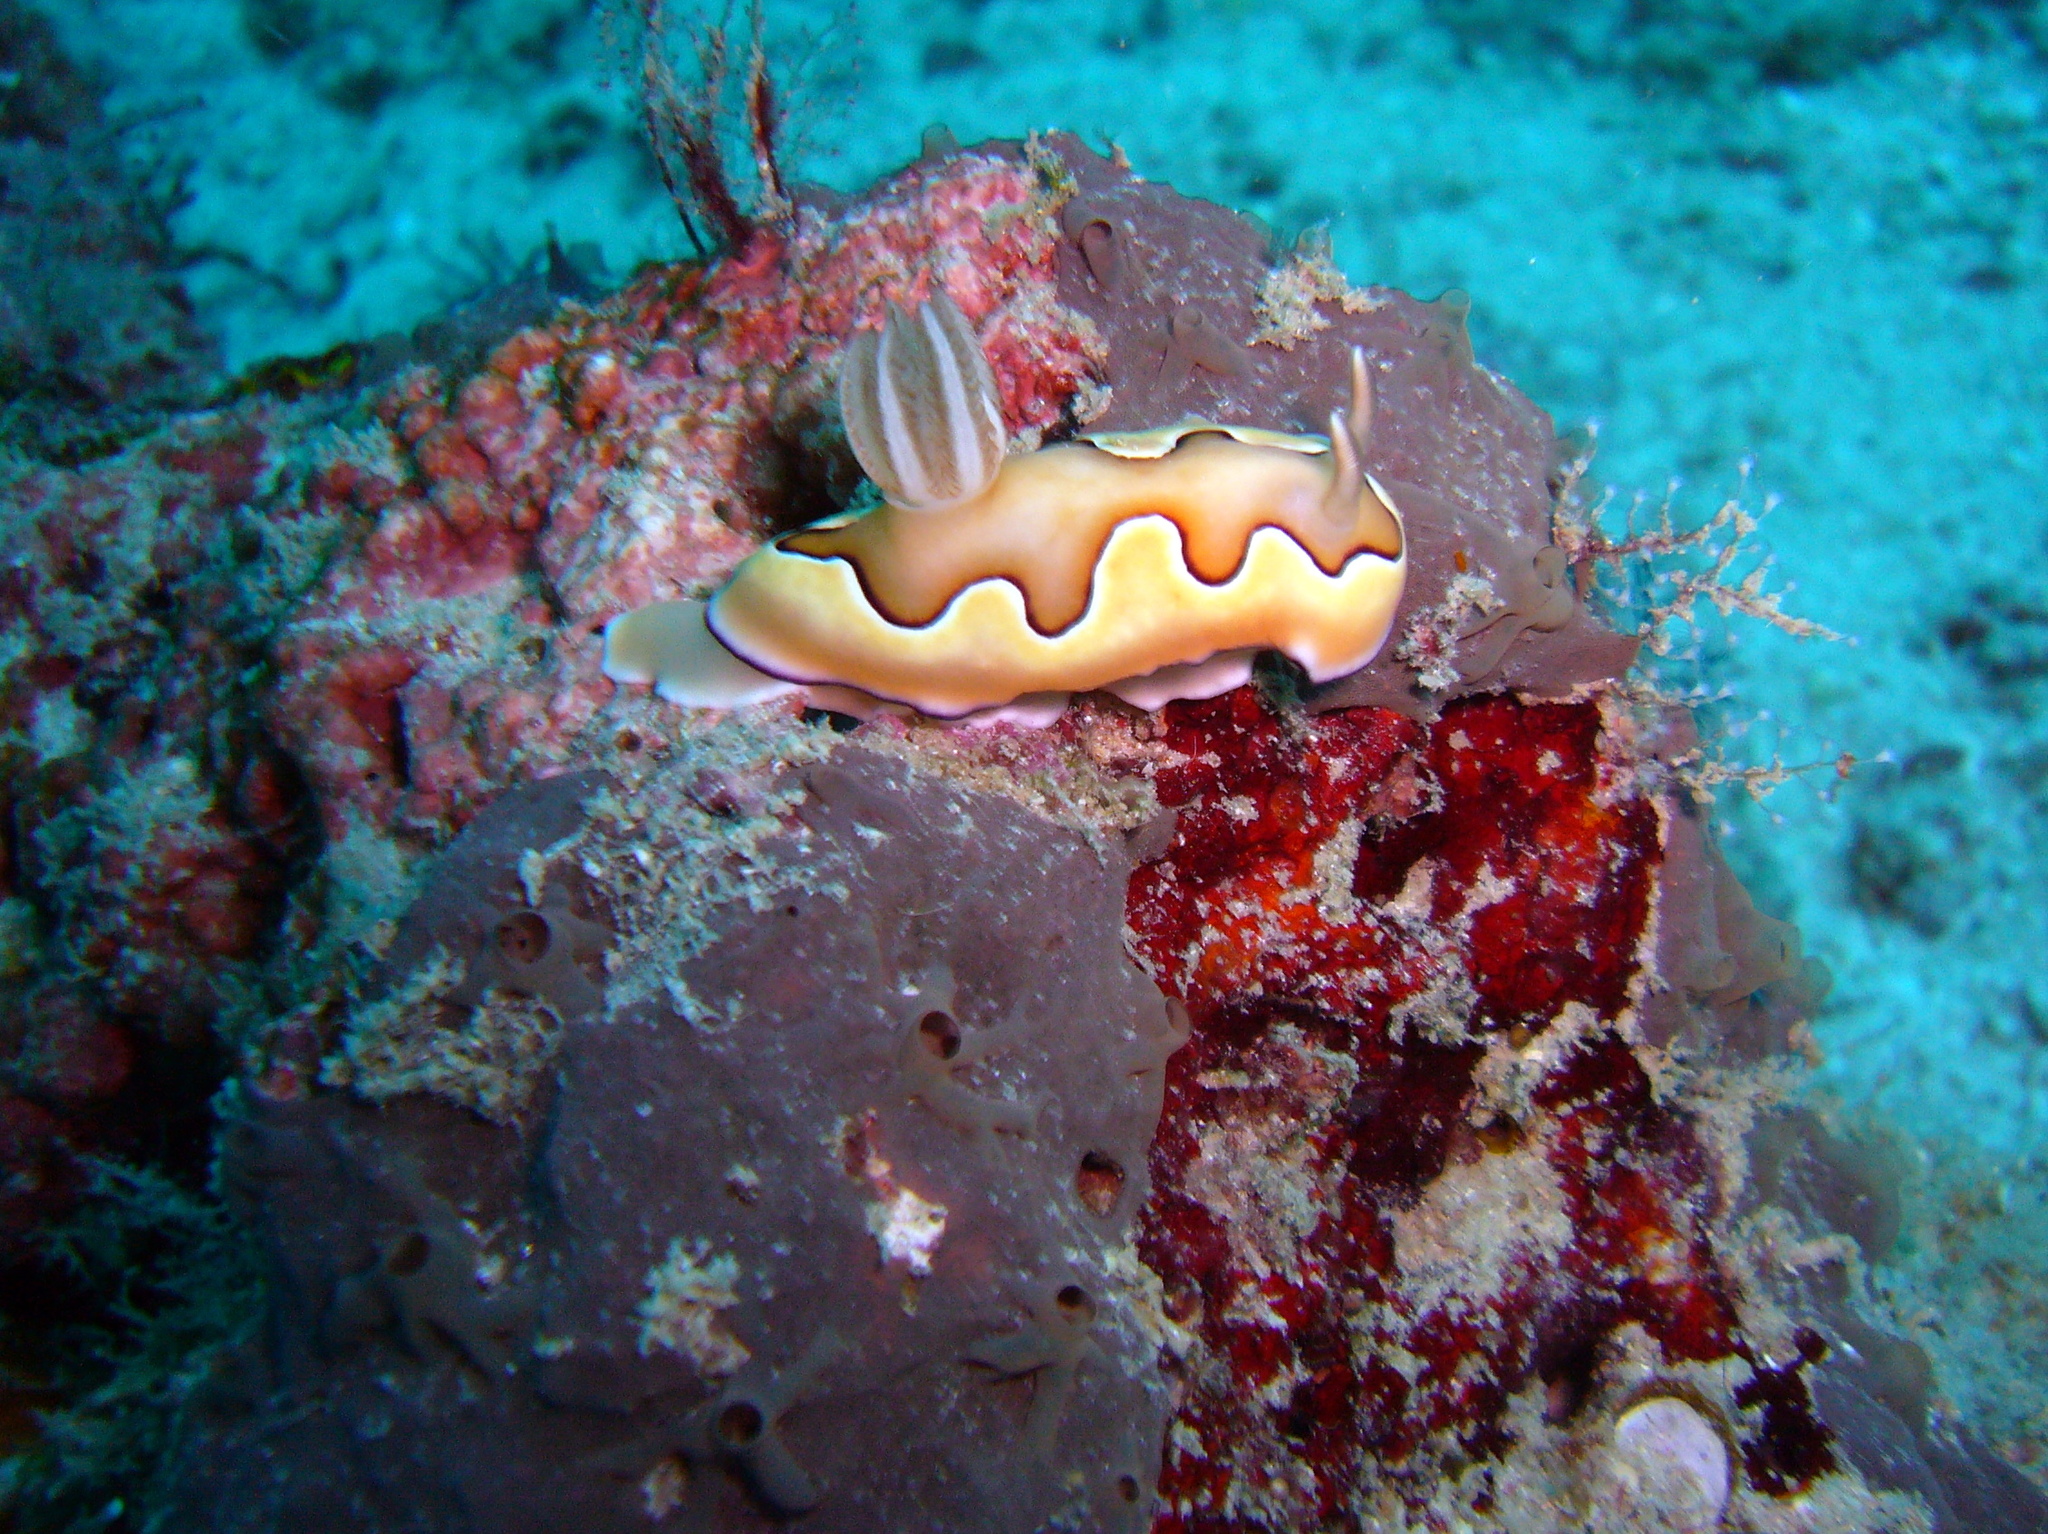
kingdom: Animalia
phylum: Mollusca
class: Gastropoda
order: Nudibranchia
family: Chromodorididae
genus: Goniobranchus
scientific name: Goniobranchus coi
